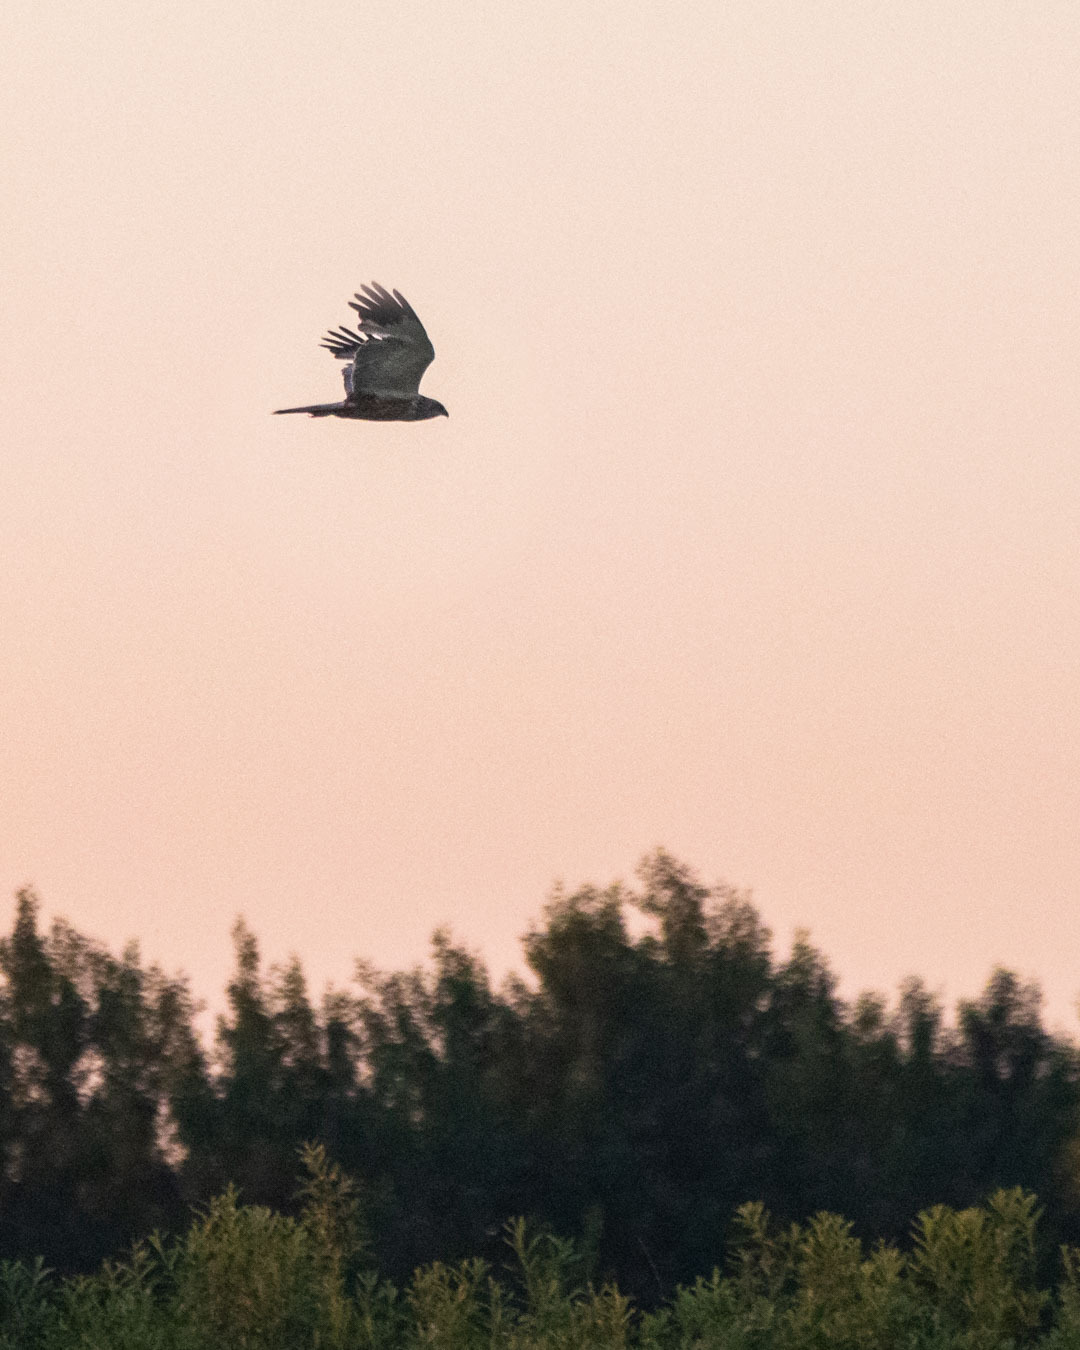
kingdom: Animalia
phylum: Chordata
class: Aves
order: Accipitriformes
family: Accipitridae
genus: Circus
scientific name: Circus aeruginosus
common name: Western marsh harrier
